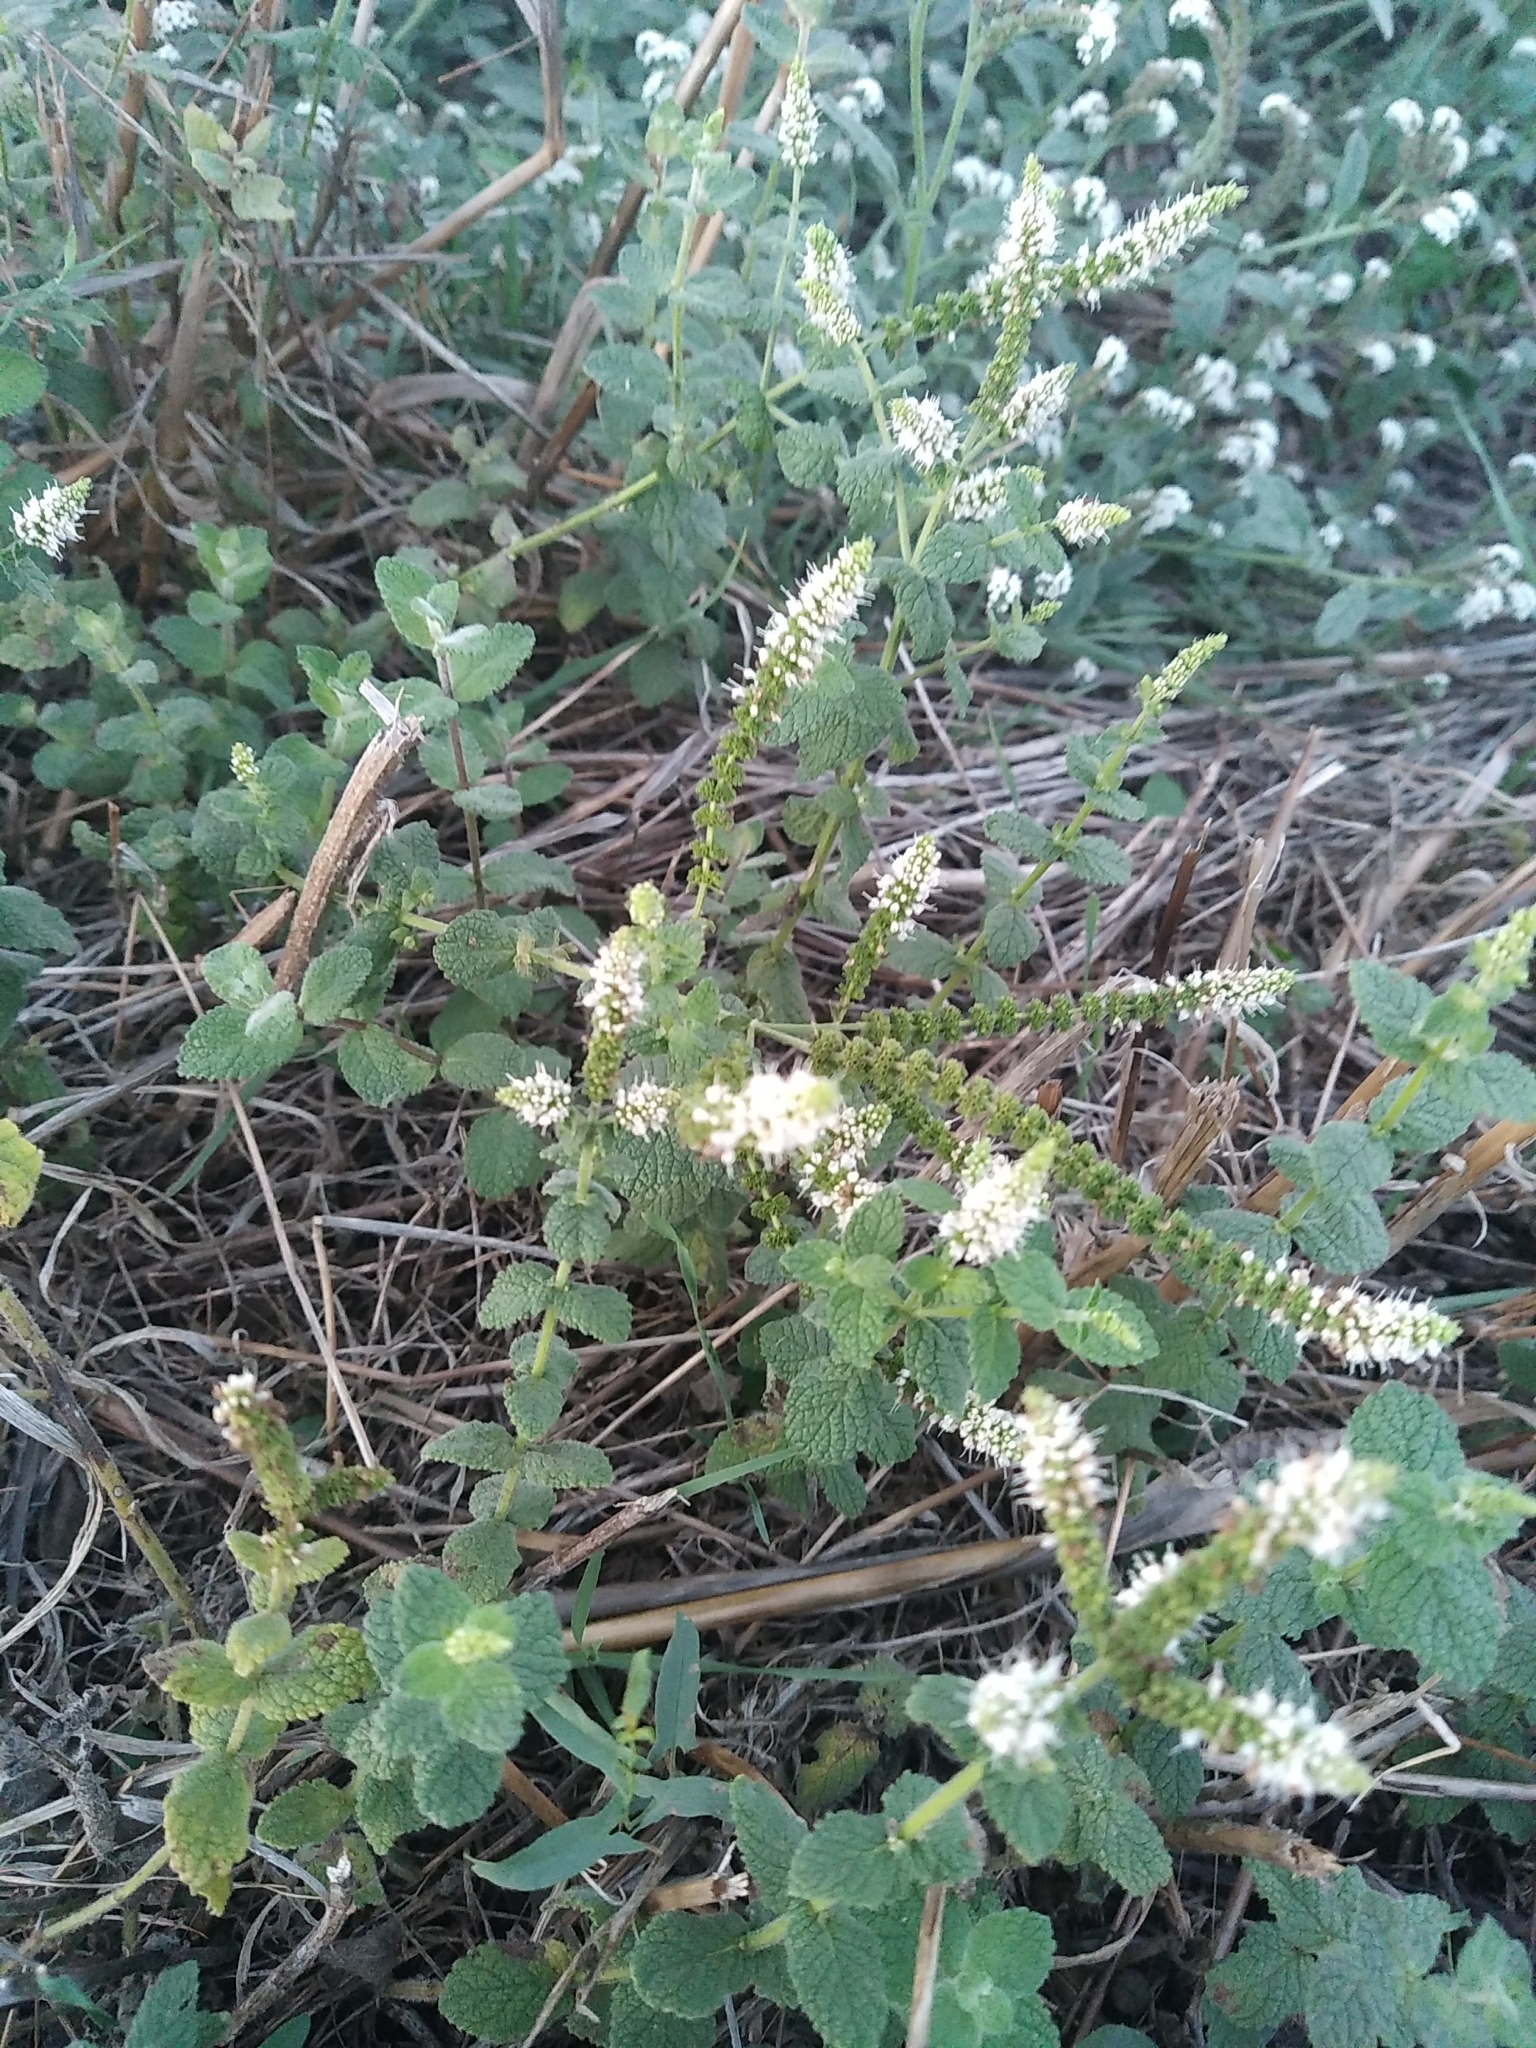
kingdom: Plantae
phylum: Tracheophyta
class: Magnoliopsida
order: Lamiales
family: Lamiaceae
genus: Mentha
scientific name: Mentha suaveolens
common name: Apple mint
